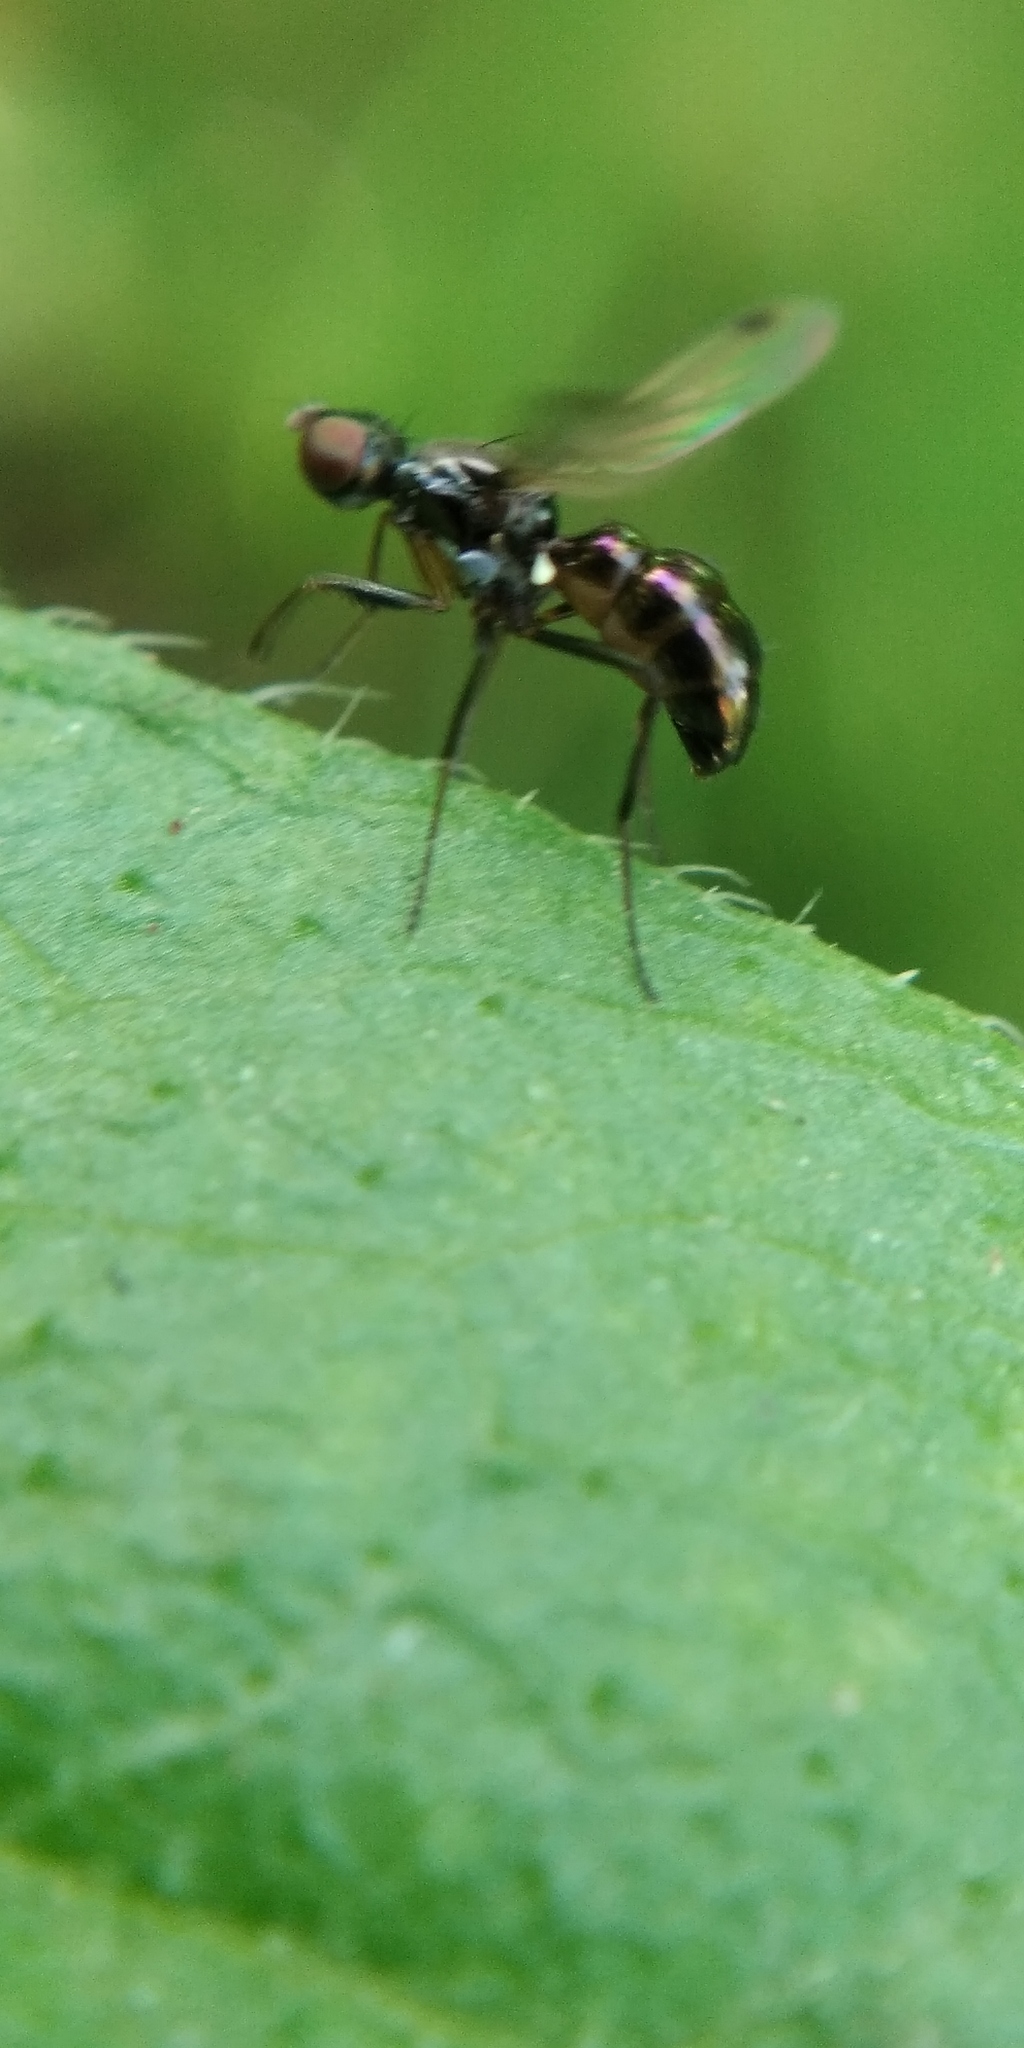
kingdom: Animalia
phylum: Arthropoda
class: Insecta
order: Diptera
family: Sepsidae
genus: Sepsis
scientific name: Sepsis punctum
